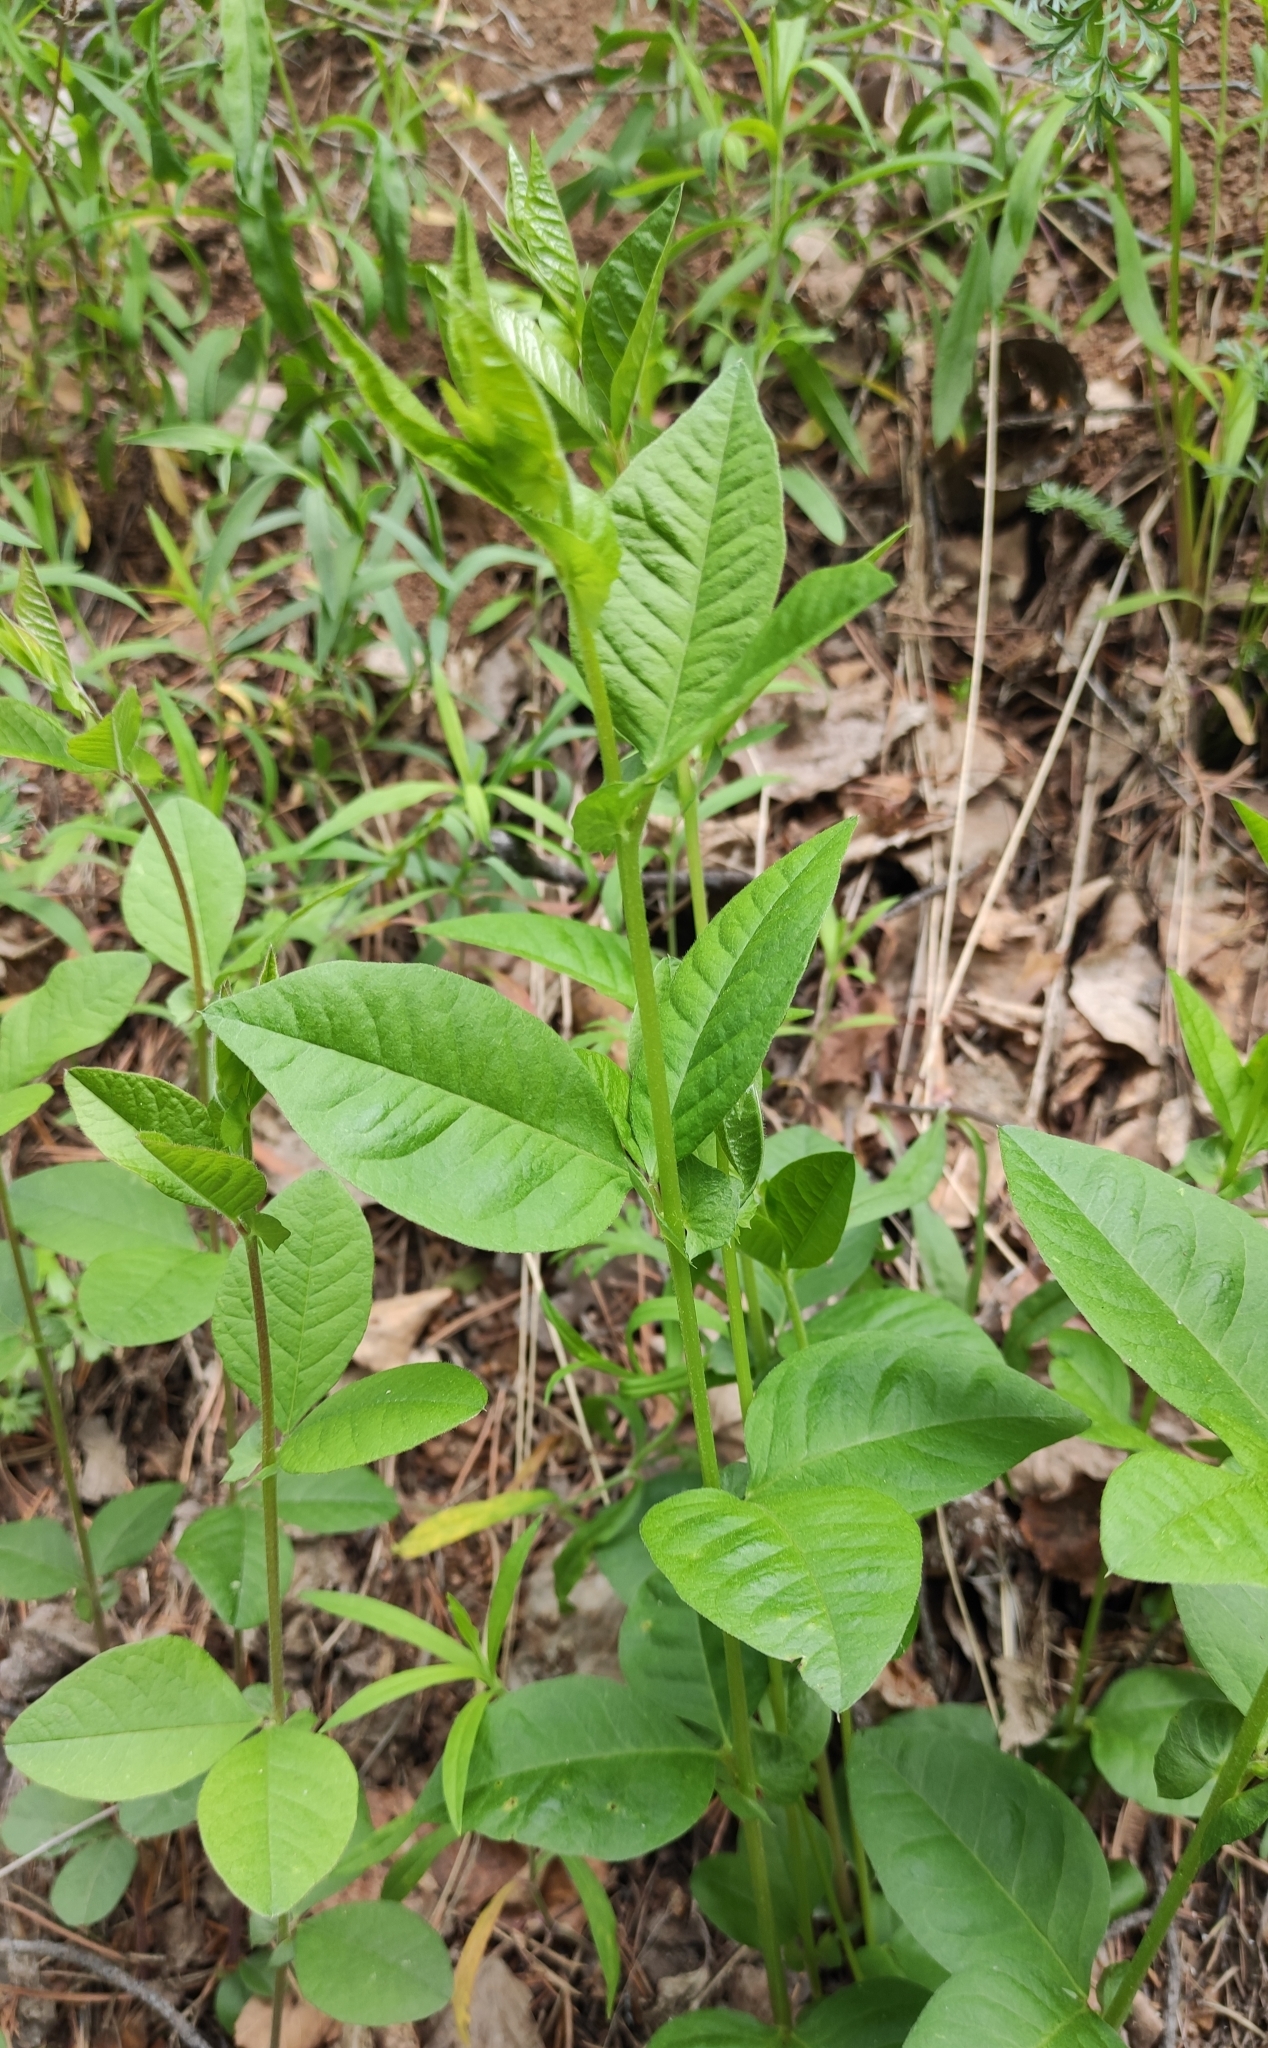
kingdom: Plantae
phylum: Tracheophyta
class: Magnoliopsida
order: Fabales
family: Fabaceae
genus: Vicia
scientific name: Vicia unijuga
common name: Two-leaf vetch
